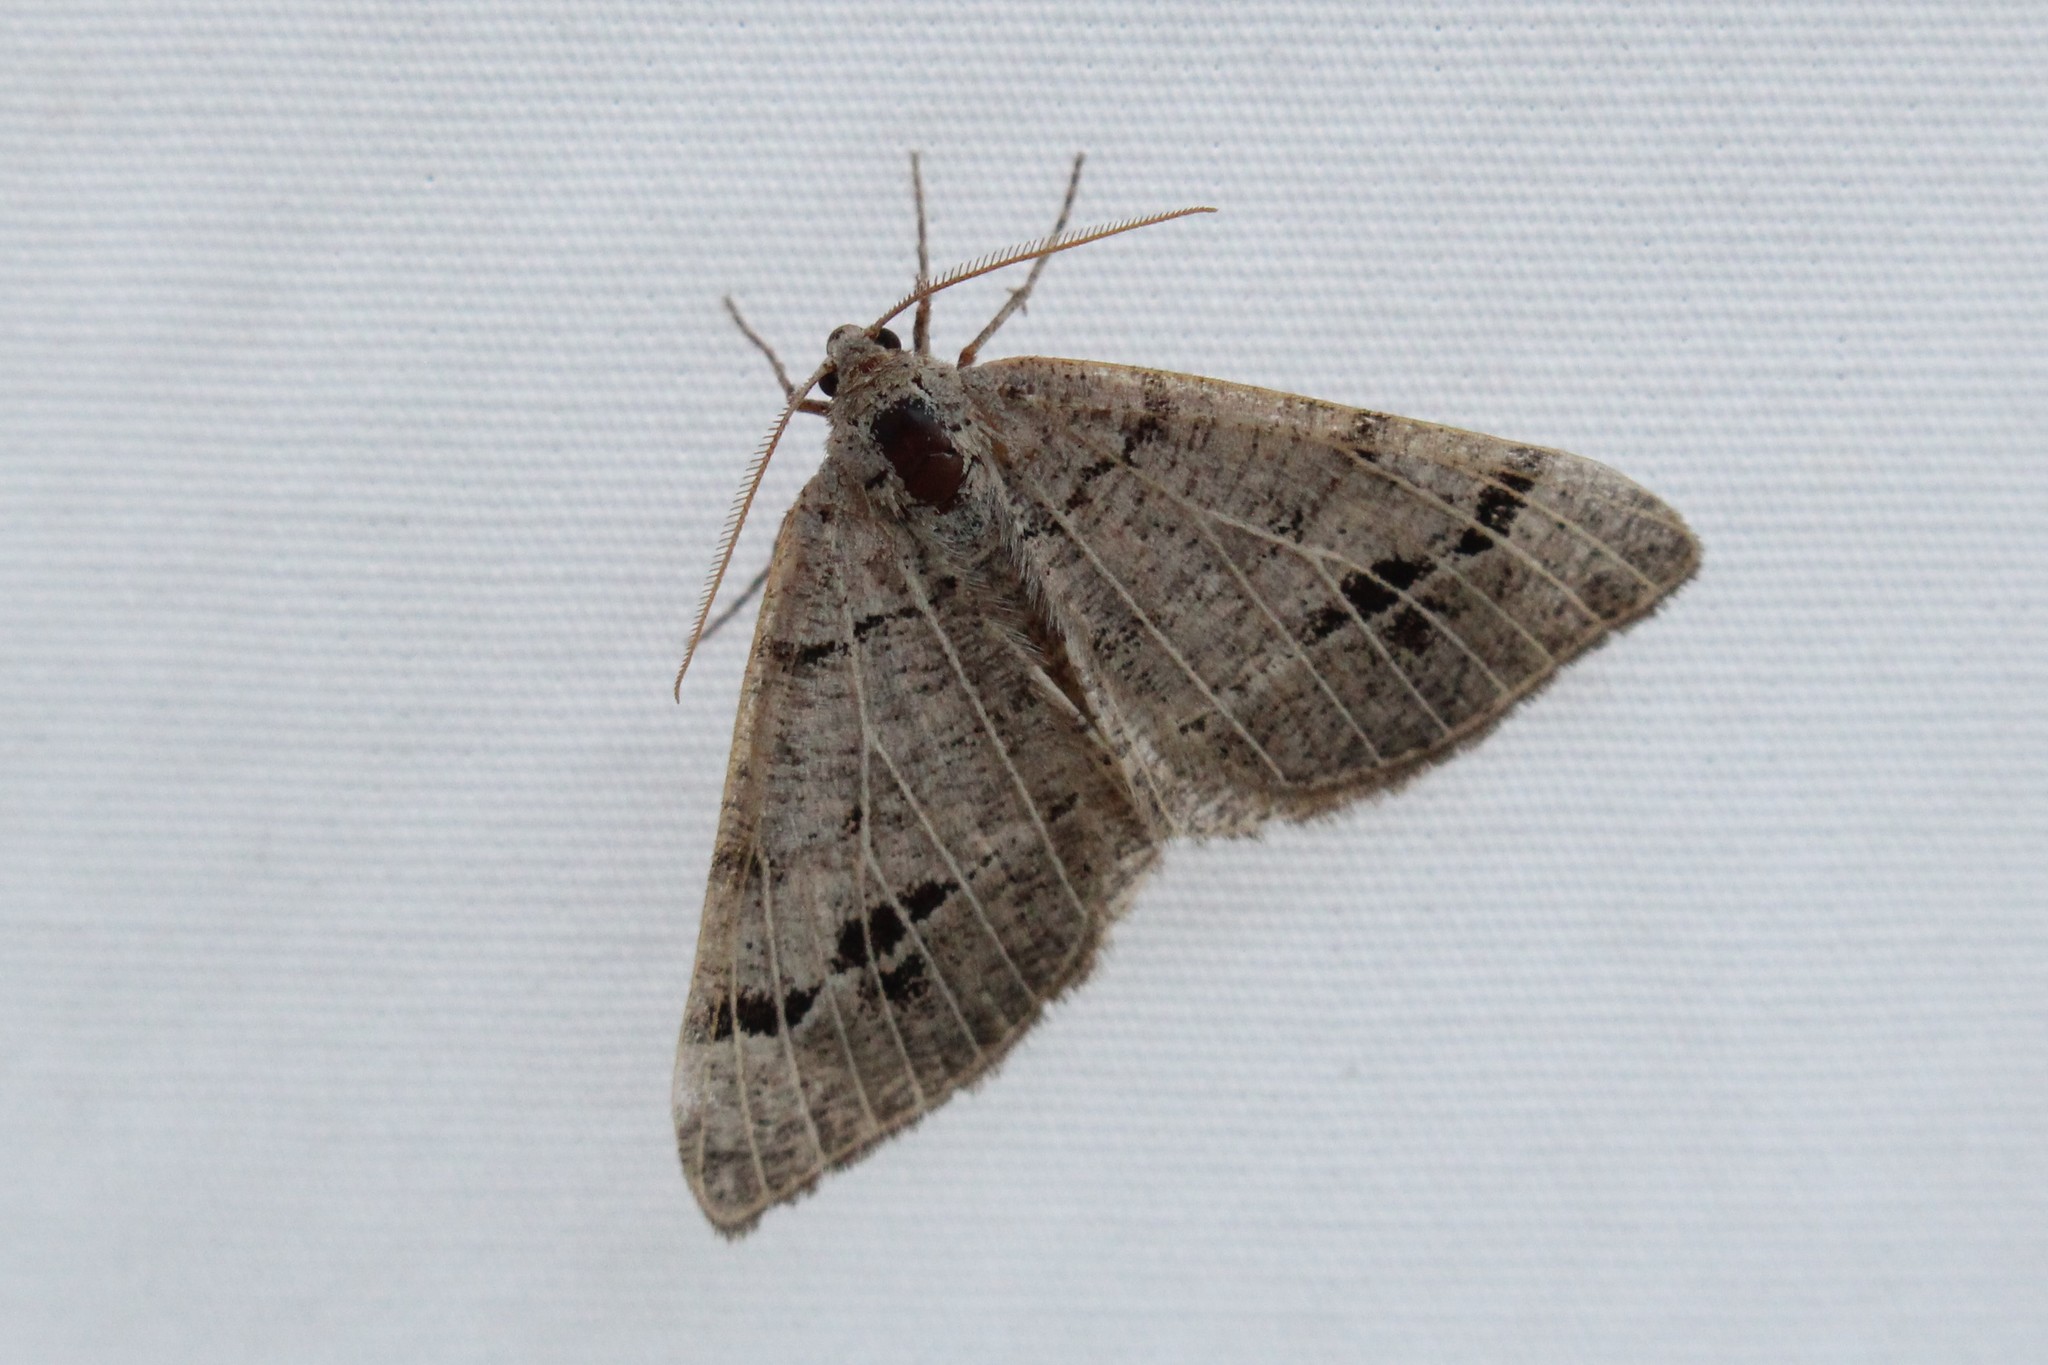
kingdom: Animalia
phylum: Arthropoda
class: Insecta
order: Lepidoptera
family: Geometridae
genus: Isturgia
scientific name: Isturgia dislocaria
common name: Pale-viened enconista
